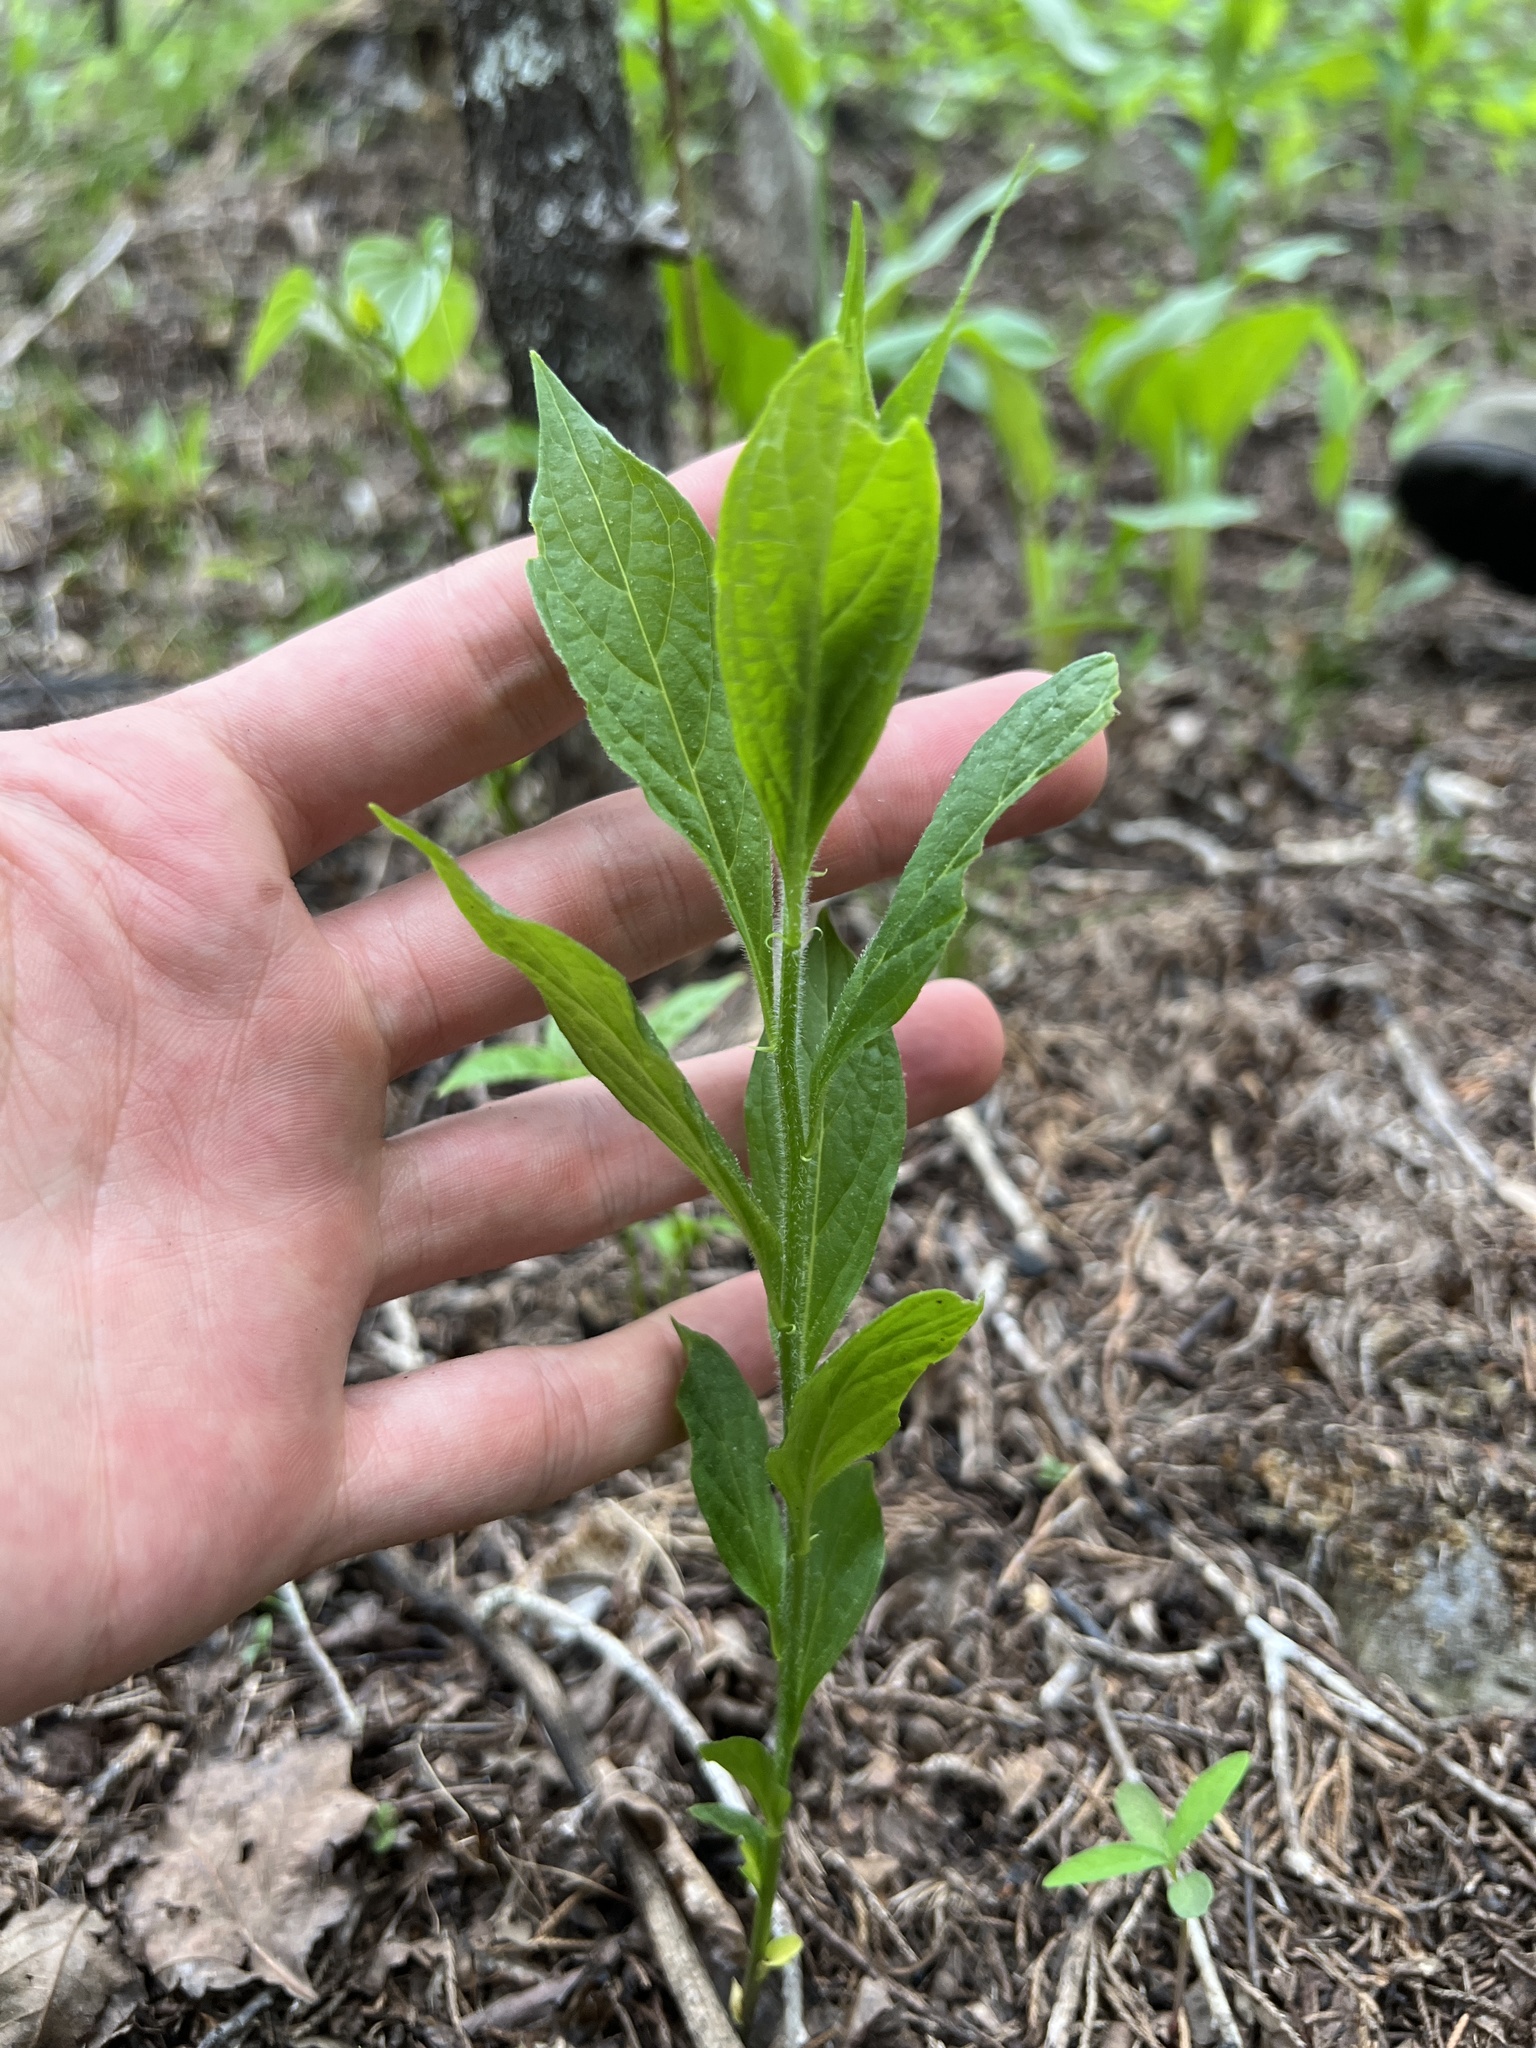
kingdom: Plantae
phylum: Tracheophyta
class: Magnoliopsida
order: Malpighiales
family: Violaceae
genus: Cubelium
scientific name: Cubelium concolor
